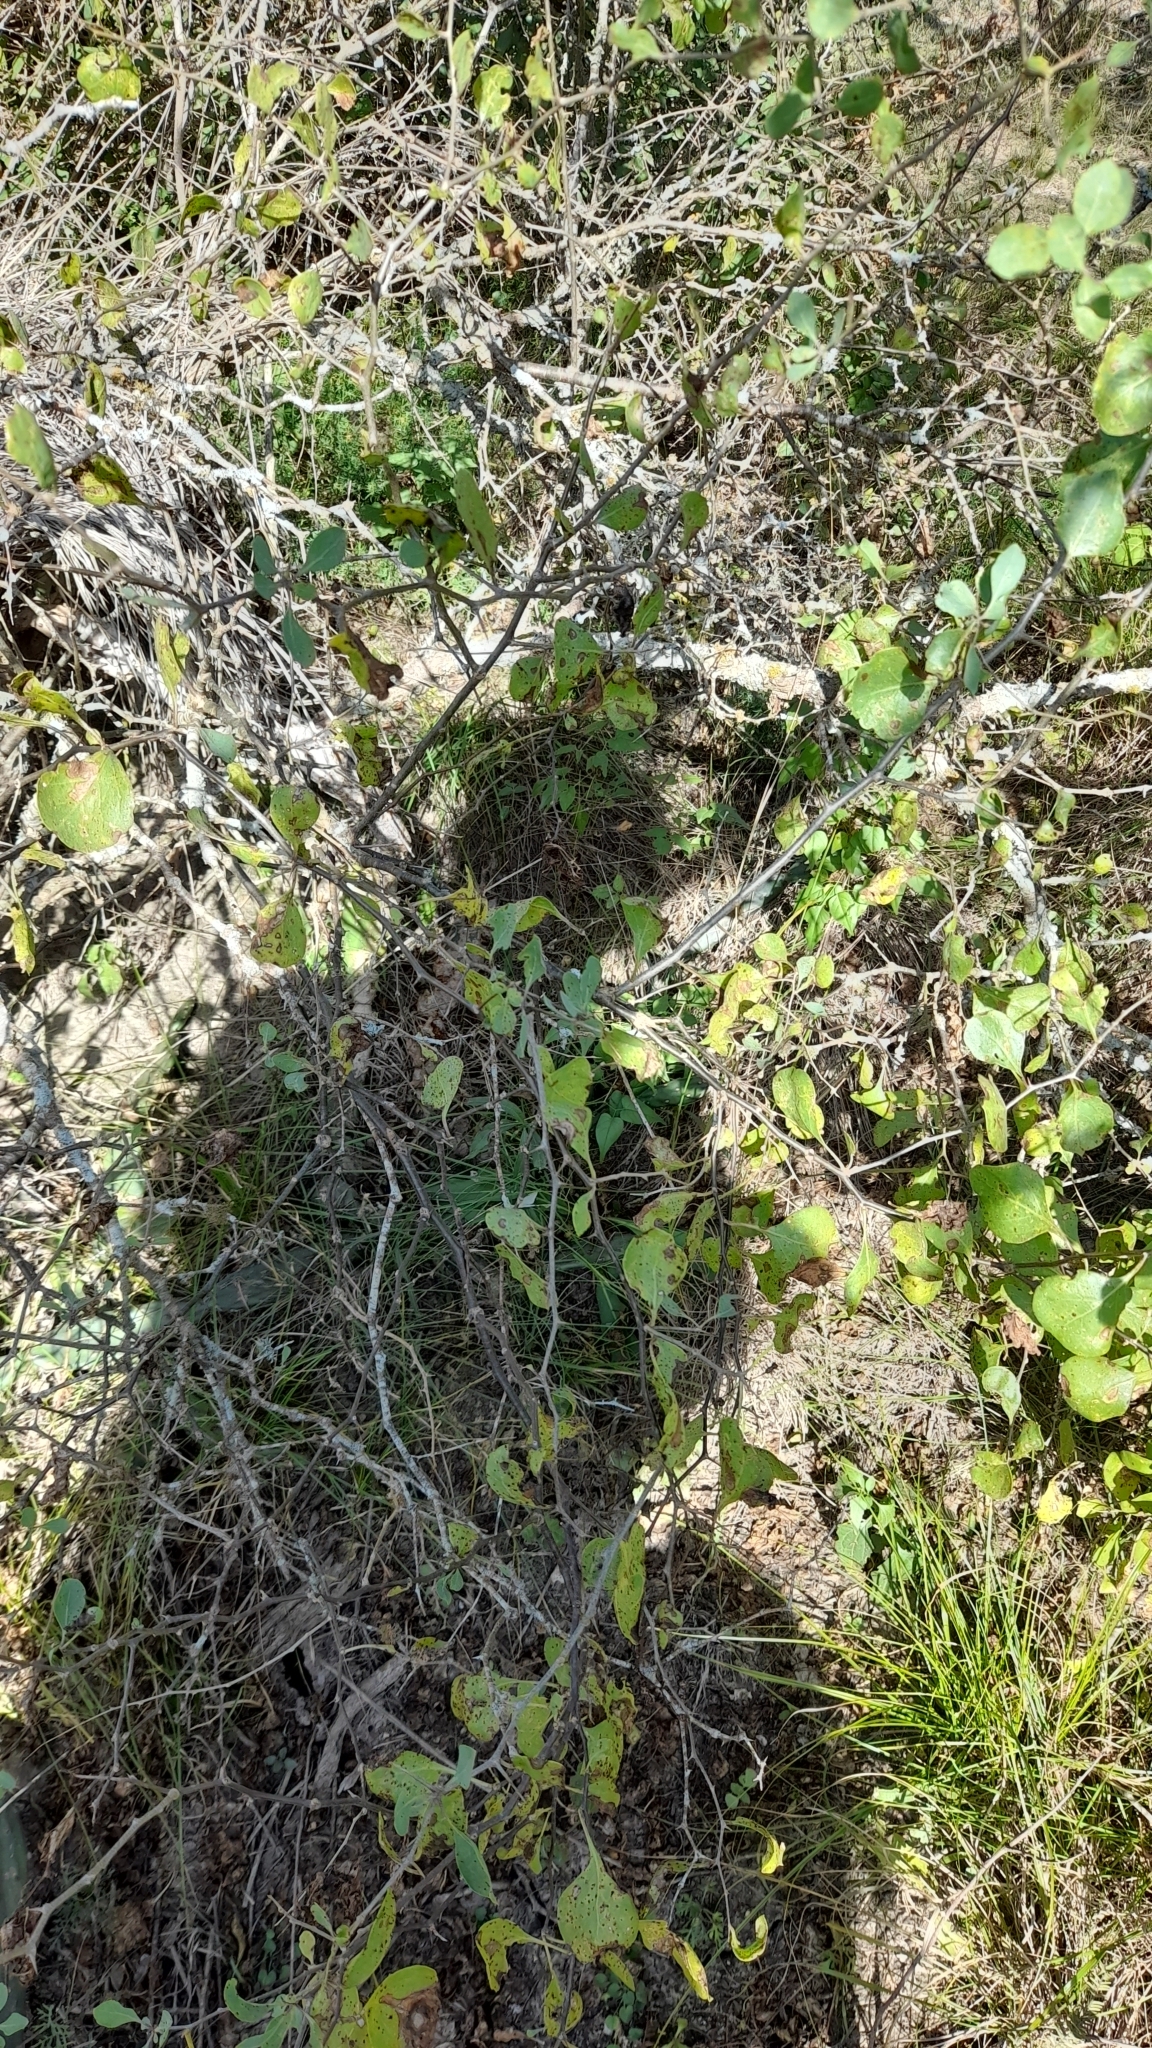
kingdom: Plantae
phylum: Tracheophyta
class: Magnoliopsida
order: Solanales
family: Solanaceae
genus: Lycium
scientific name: Lycium boerhaaviifolium
